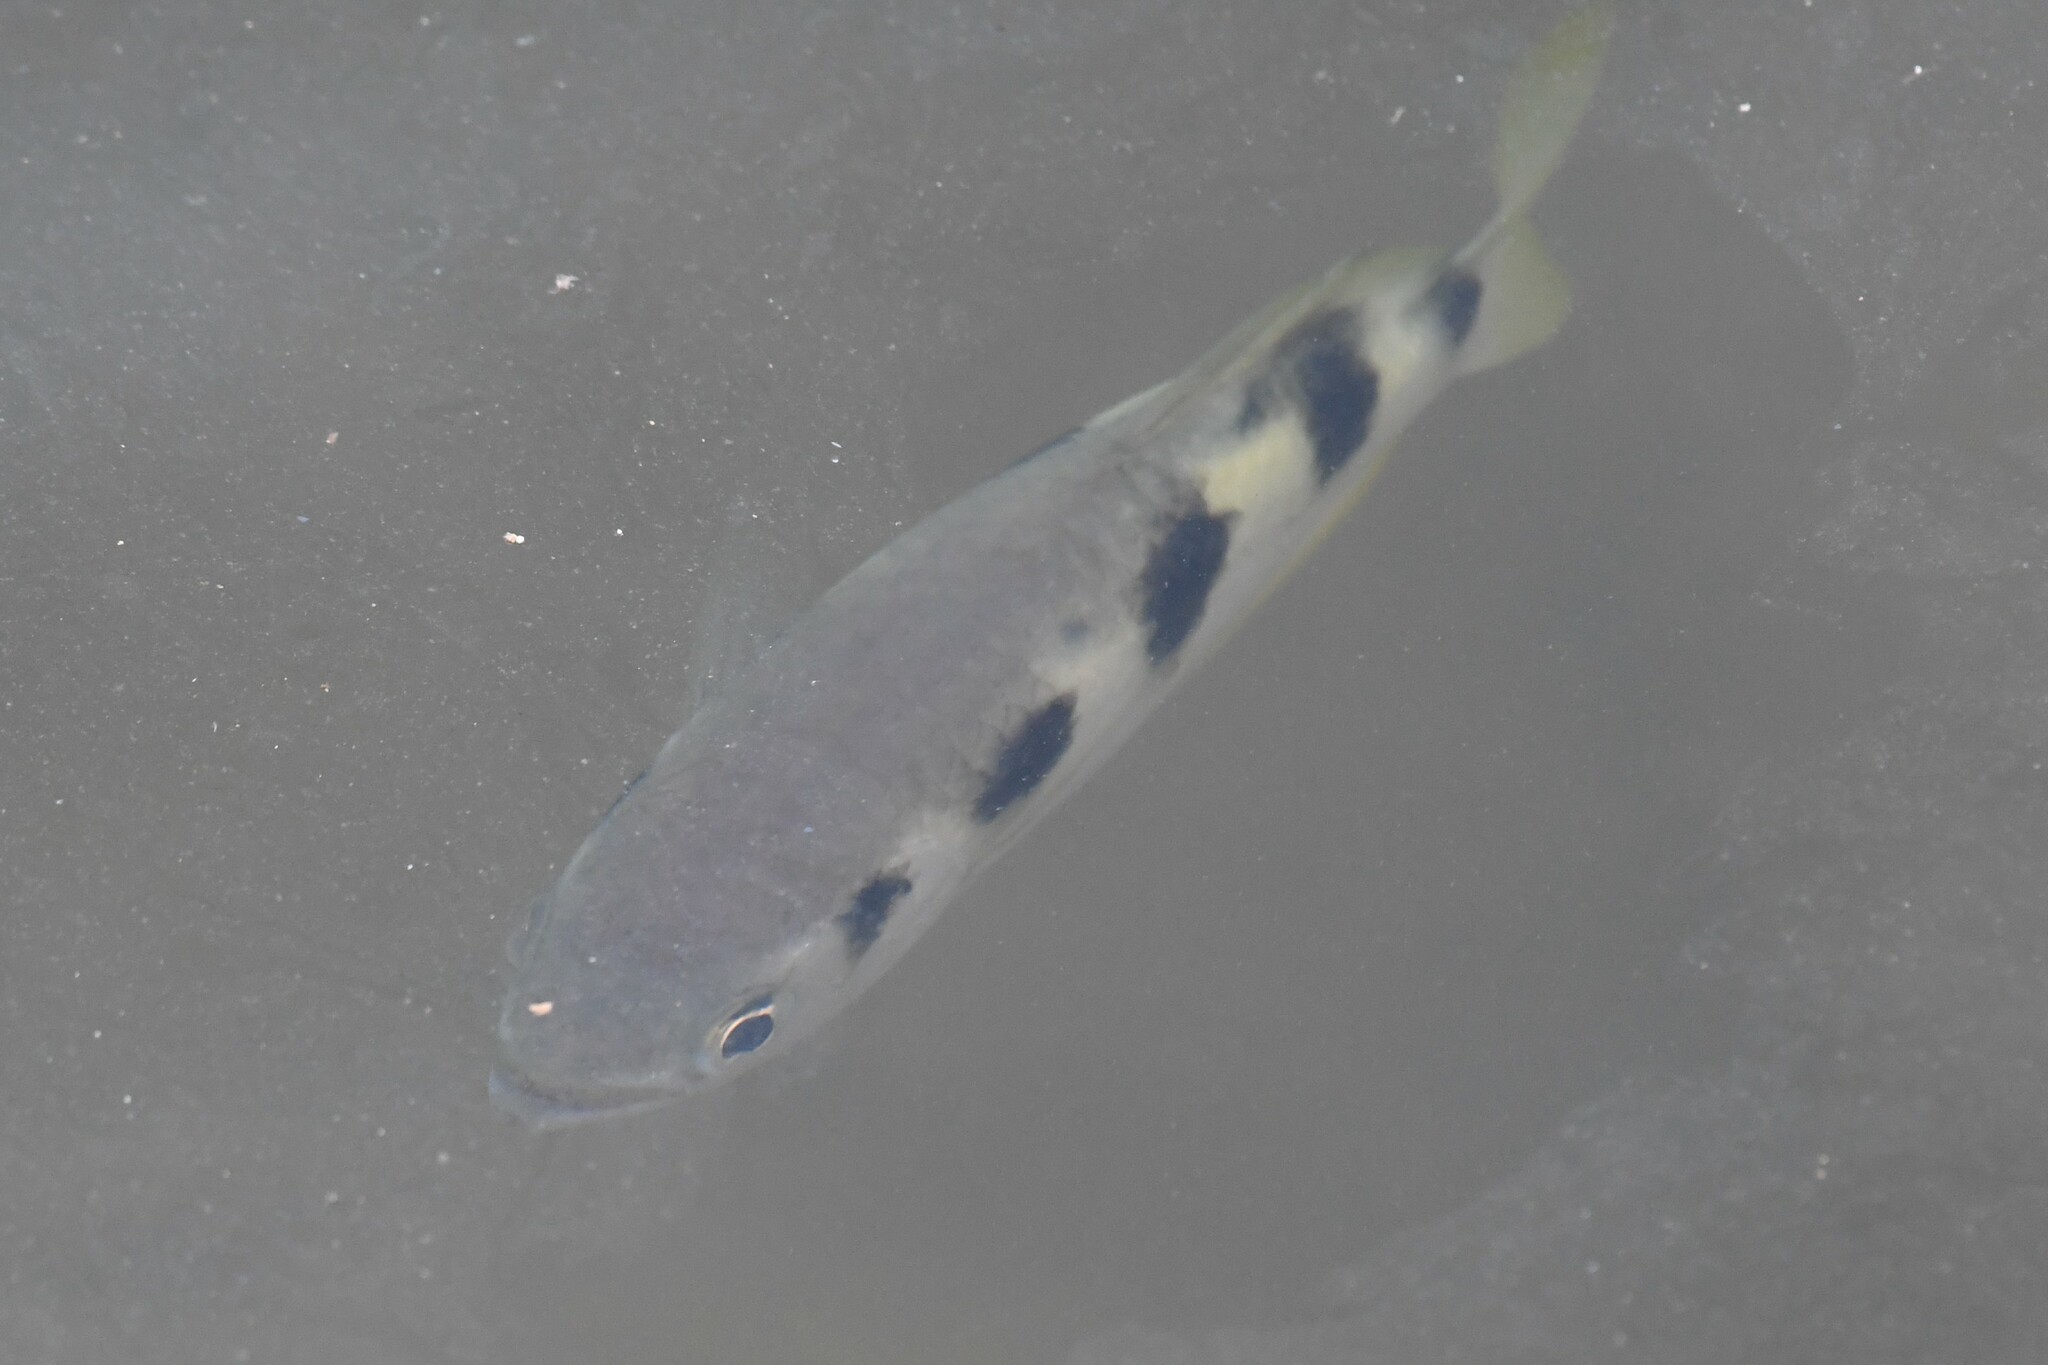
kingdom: Animalia
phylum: Chordata
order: Perciformes
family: Toxotidae
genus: Toxotes
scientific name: Toxotes jaculatrix
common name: Banded archerfish
